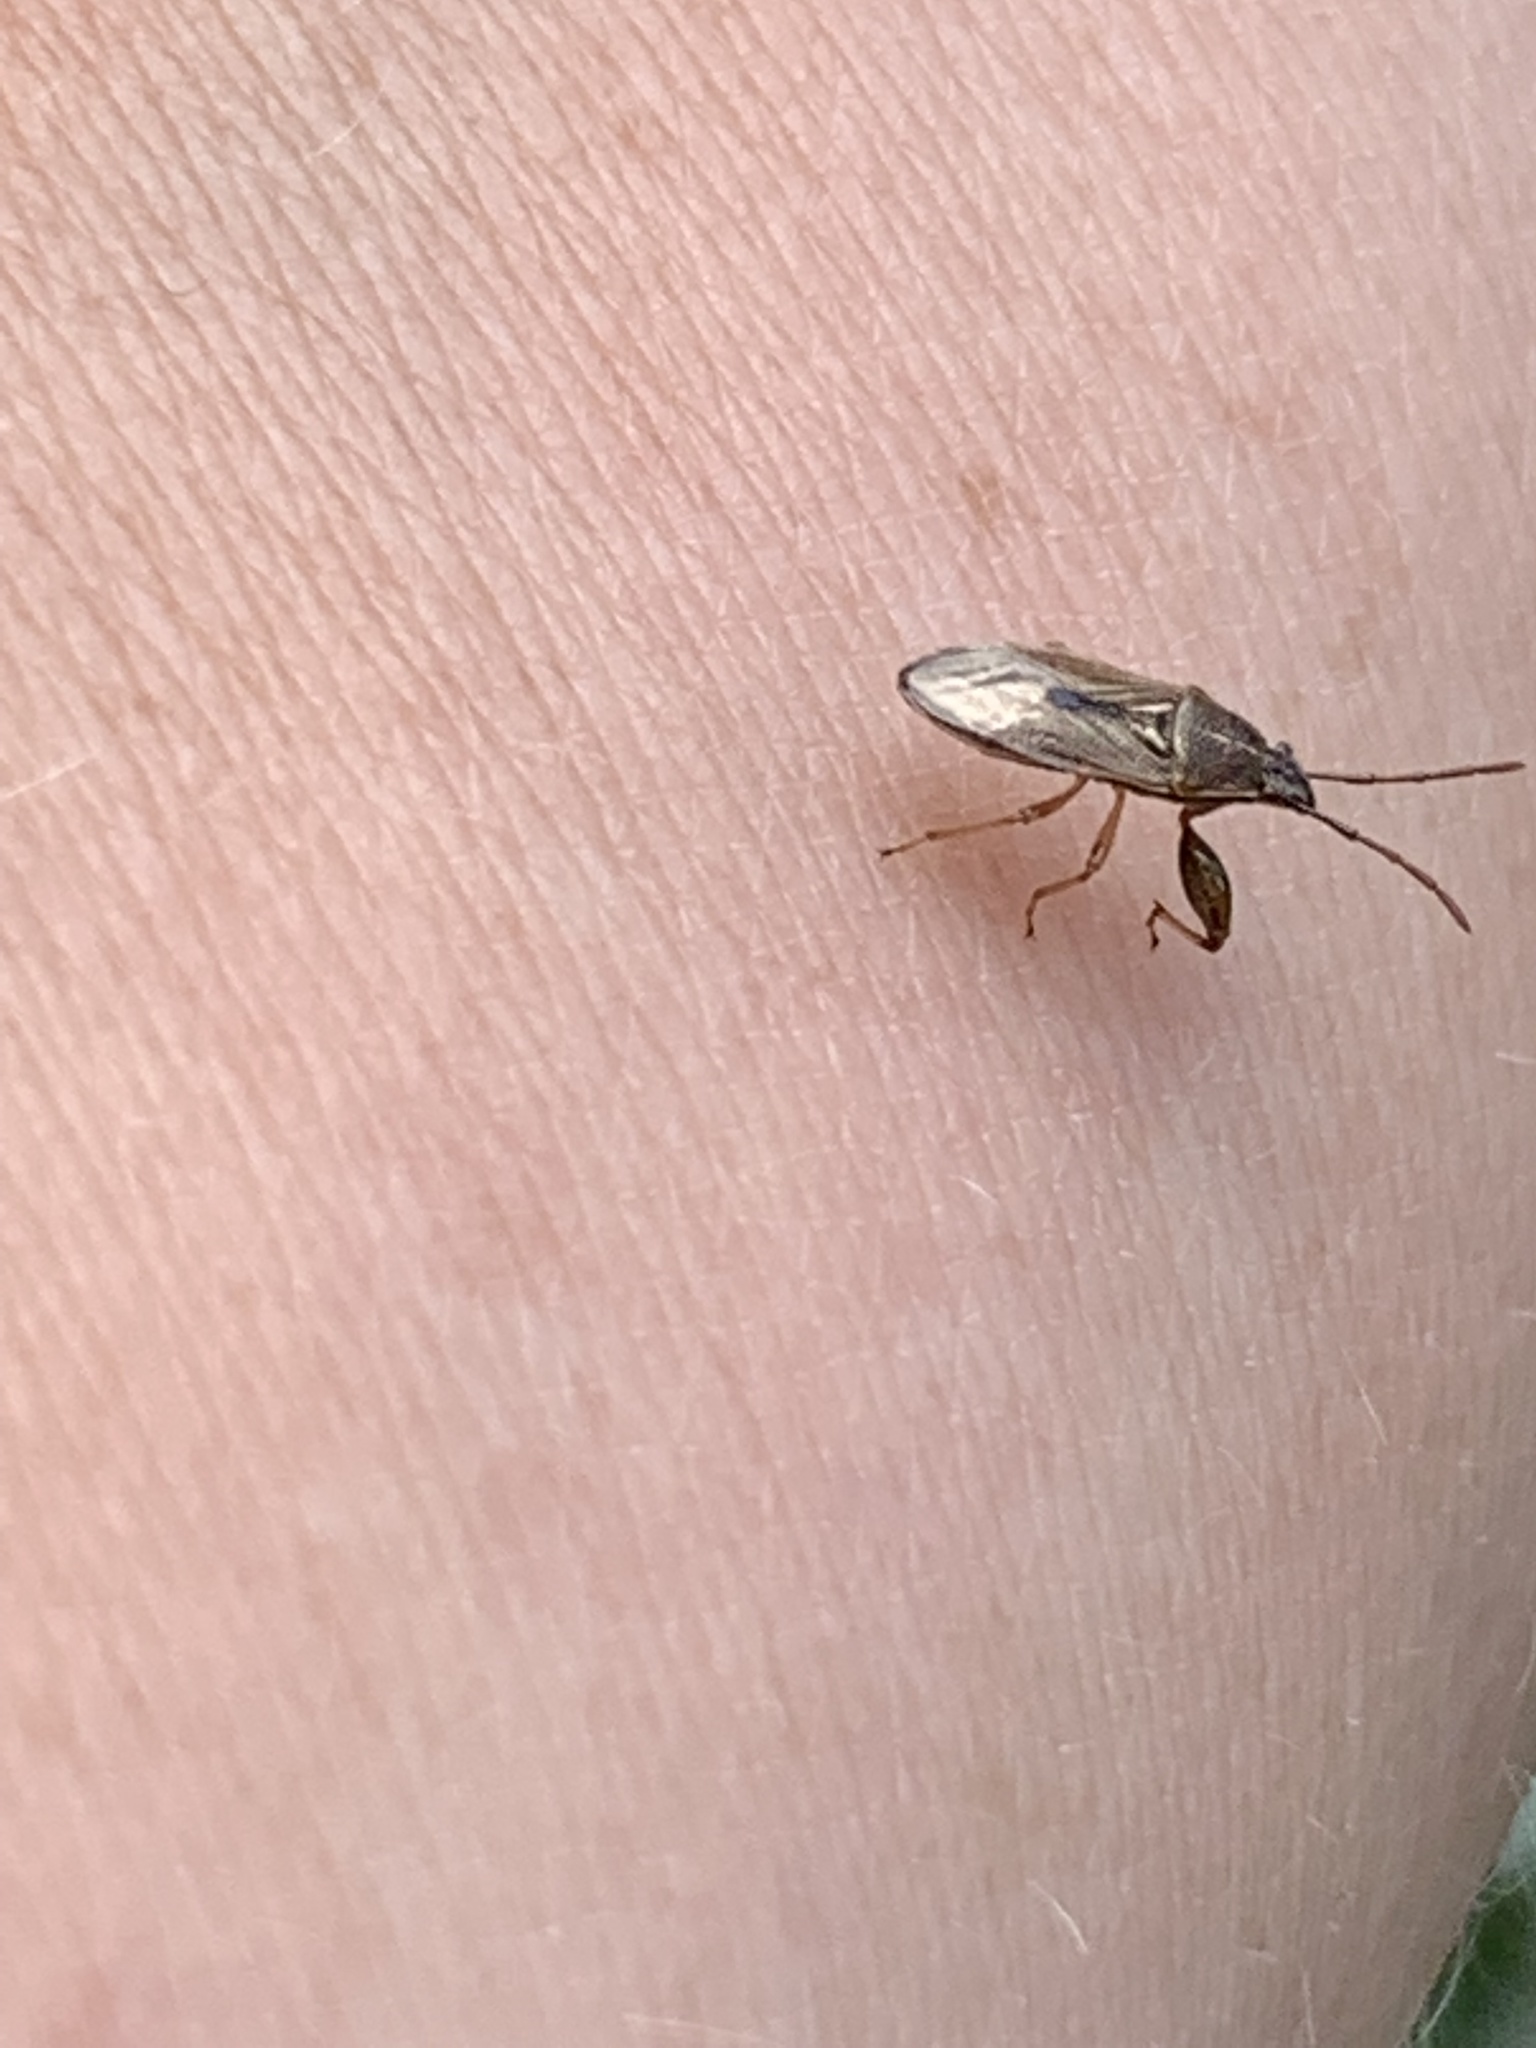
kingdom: Animalia
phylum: Arthropoda
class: Insecta
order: Hemiptera
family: Pachygronthidae
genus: Oedancala
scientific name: Oedancala dorsalis
